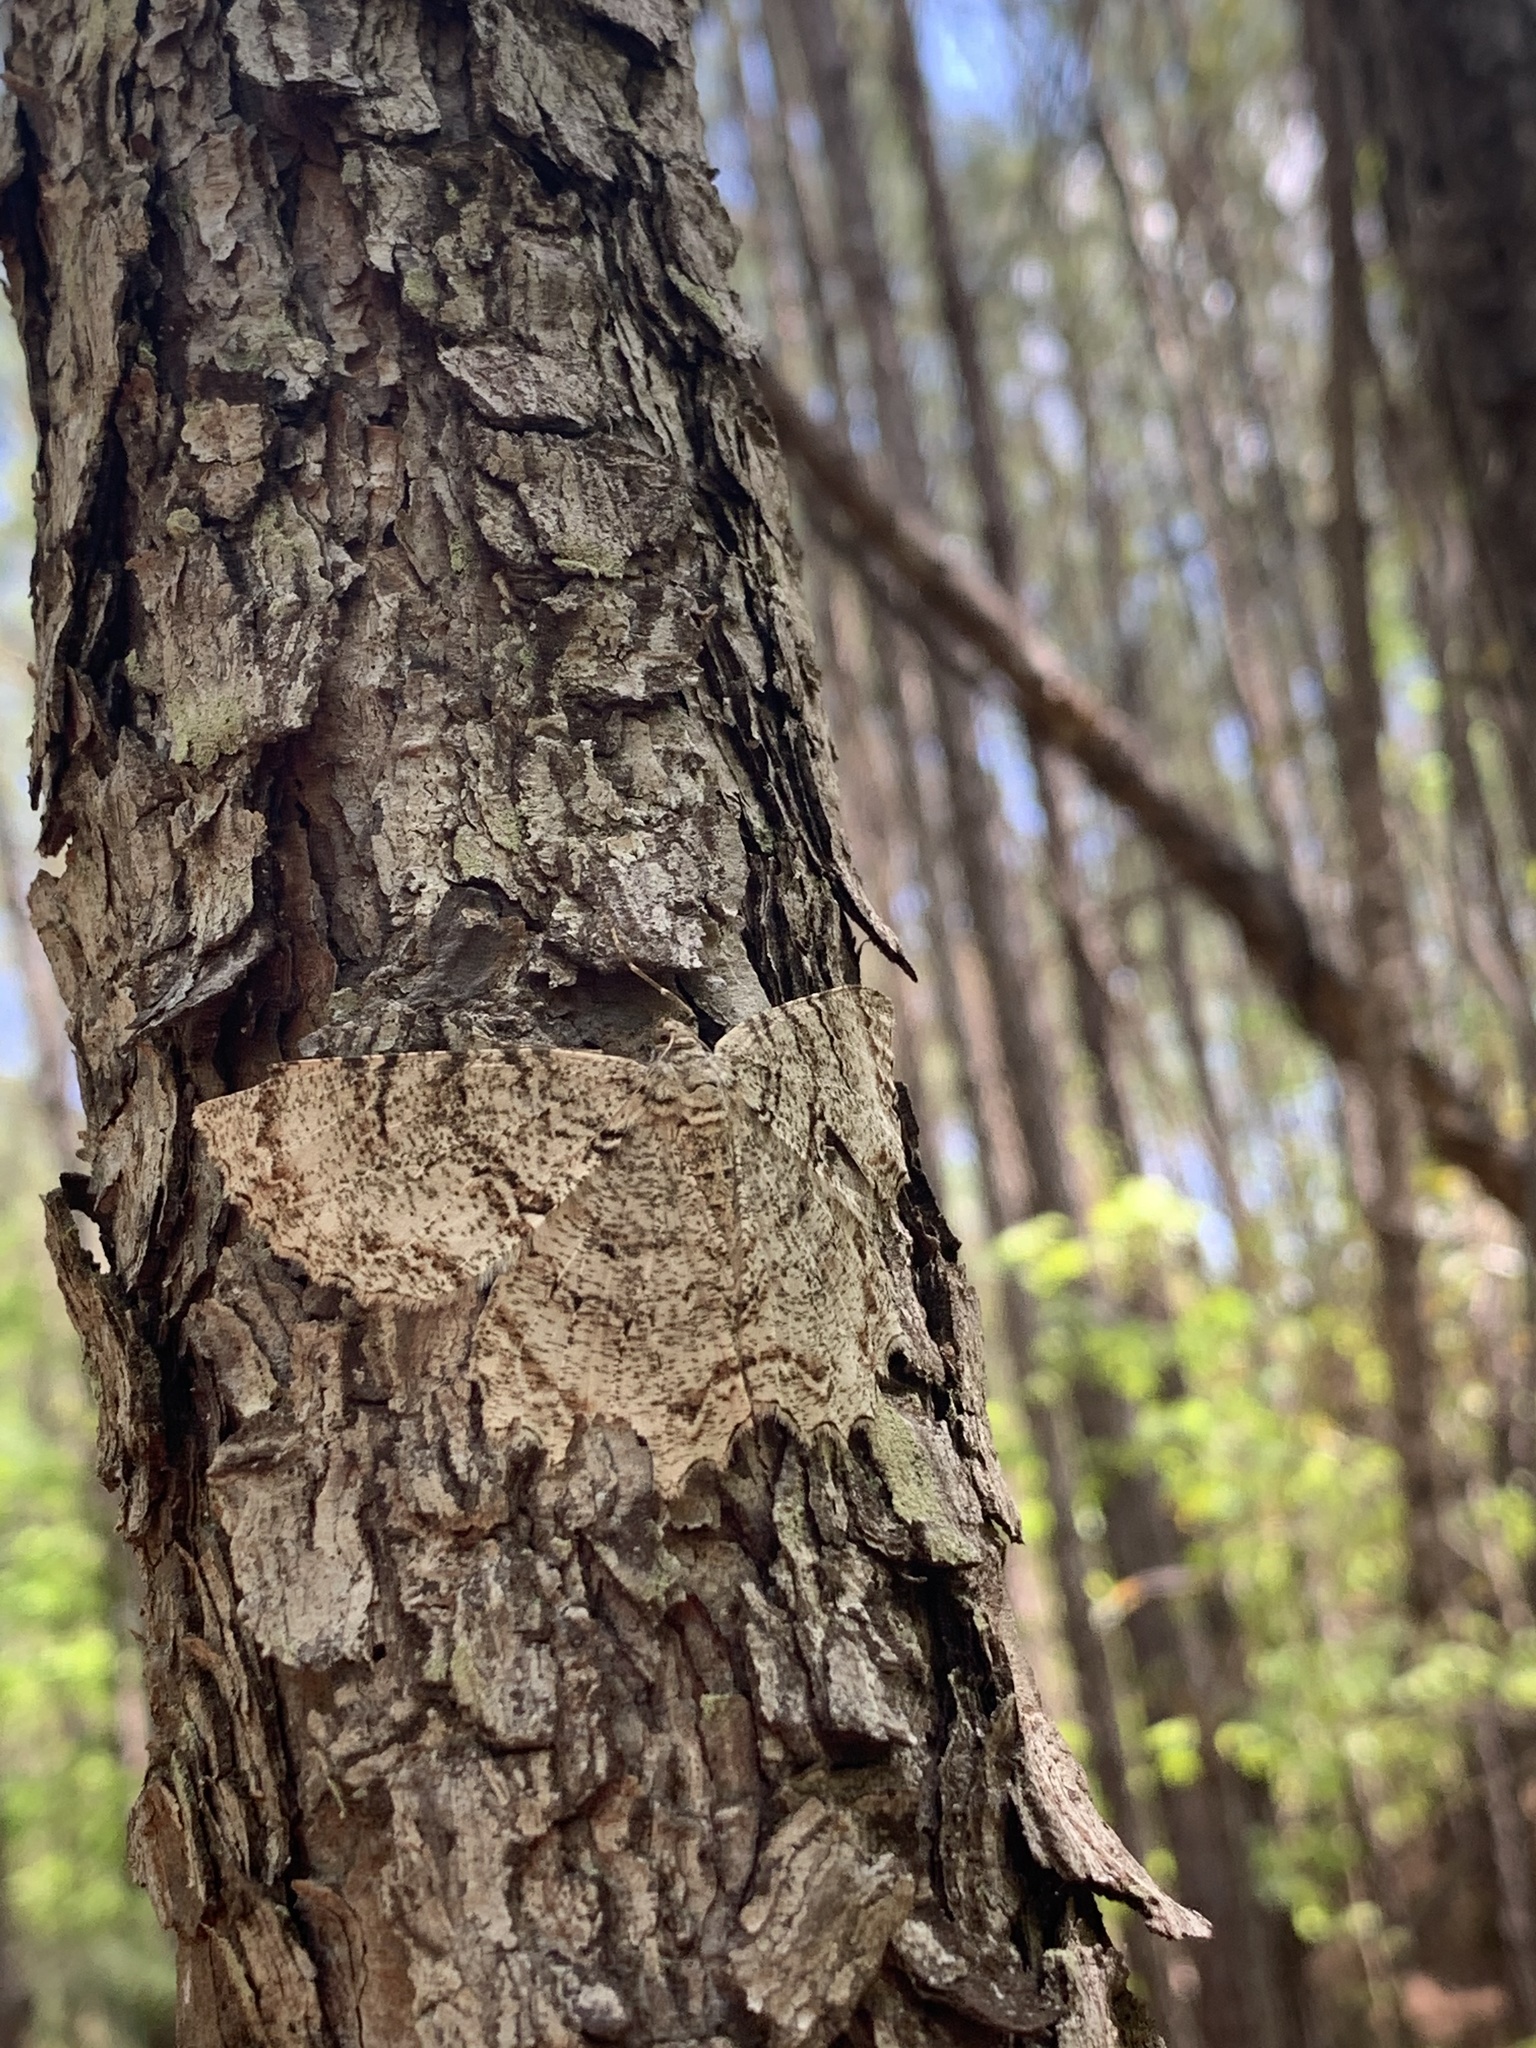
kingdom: Animalia
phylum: Arthropoda
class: Insecta
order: Lepidoptera
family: Geometridae
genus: Epimecis
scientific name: Epimecis hortaria
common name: Tulip-tree beauty
